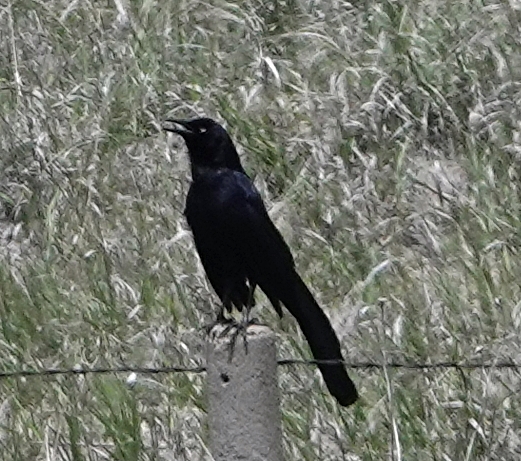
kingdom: Animalia
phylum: Chordata
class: Aves
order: Passeriformes
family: Icteridae
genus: Quiscalus
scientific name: Quiscalus mexicanus
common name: Great-tailed grackle
